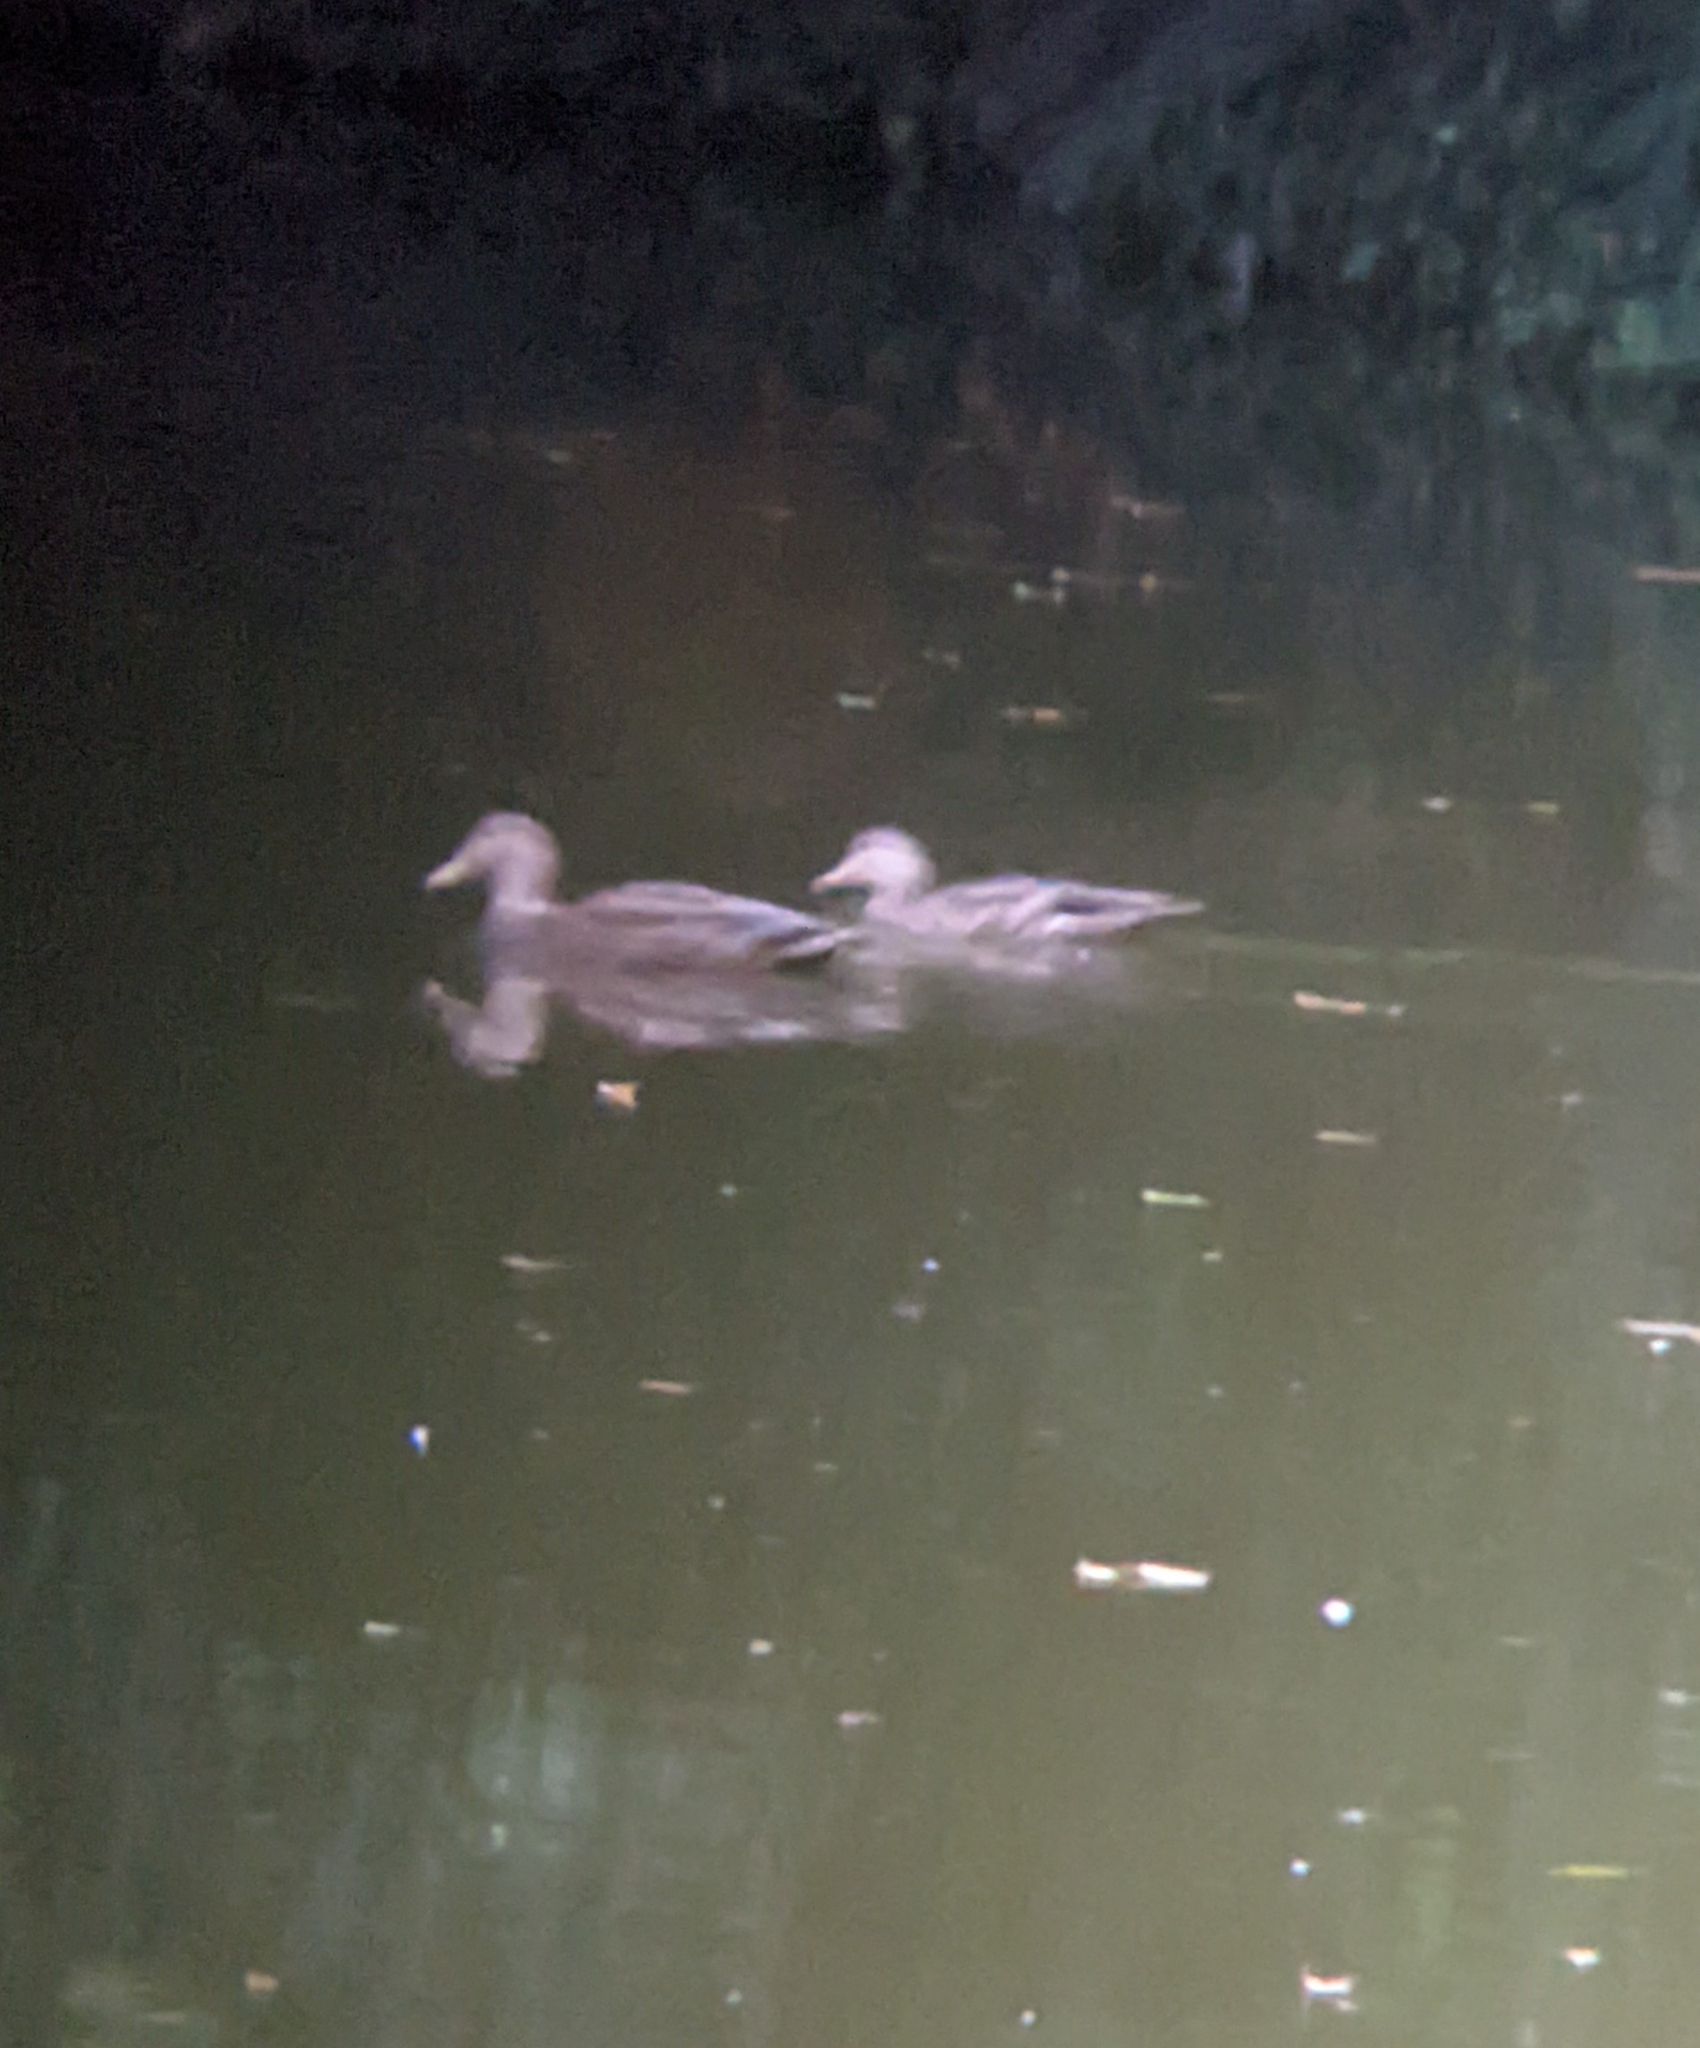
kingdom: Animalia
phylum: Chordata
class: Aves
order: Anseriformes
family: Anatidae
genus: Anas
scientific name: Anas diazi
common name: Mexican duck
